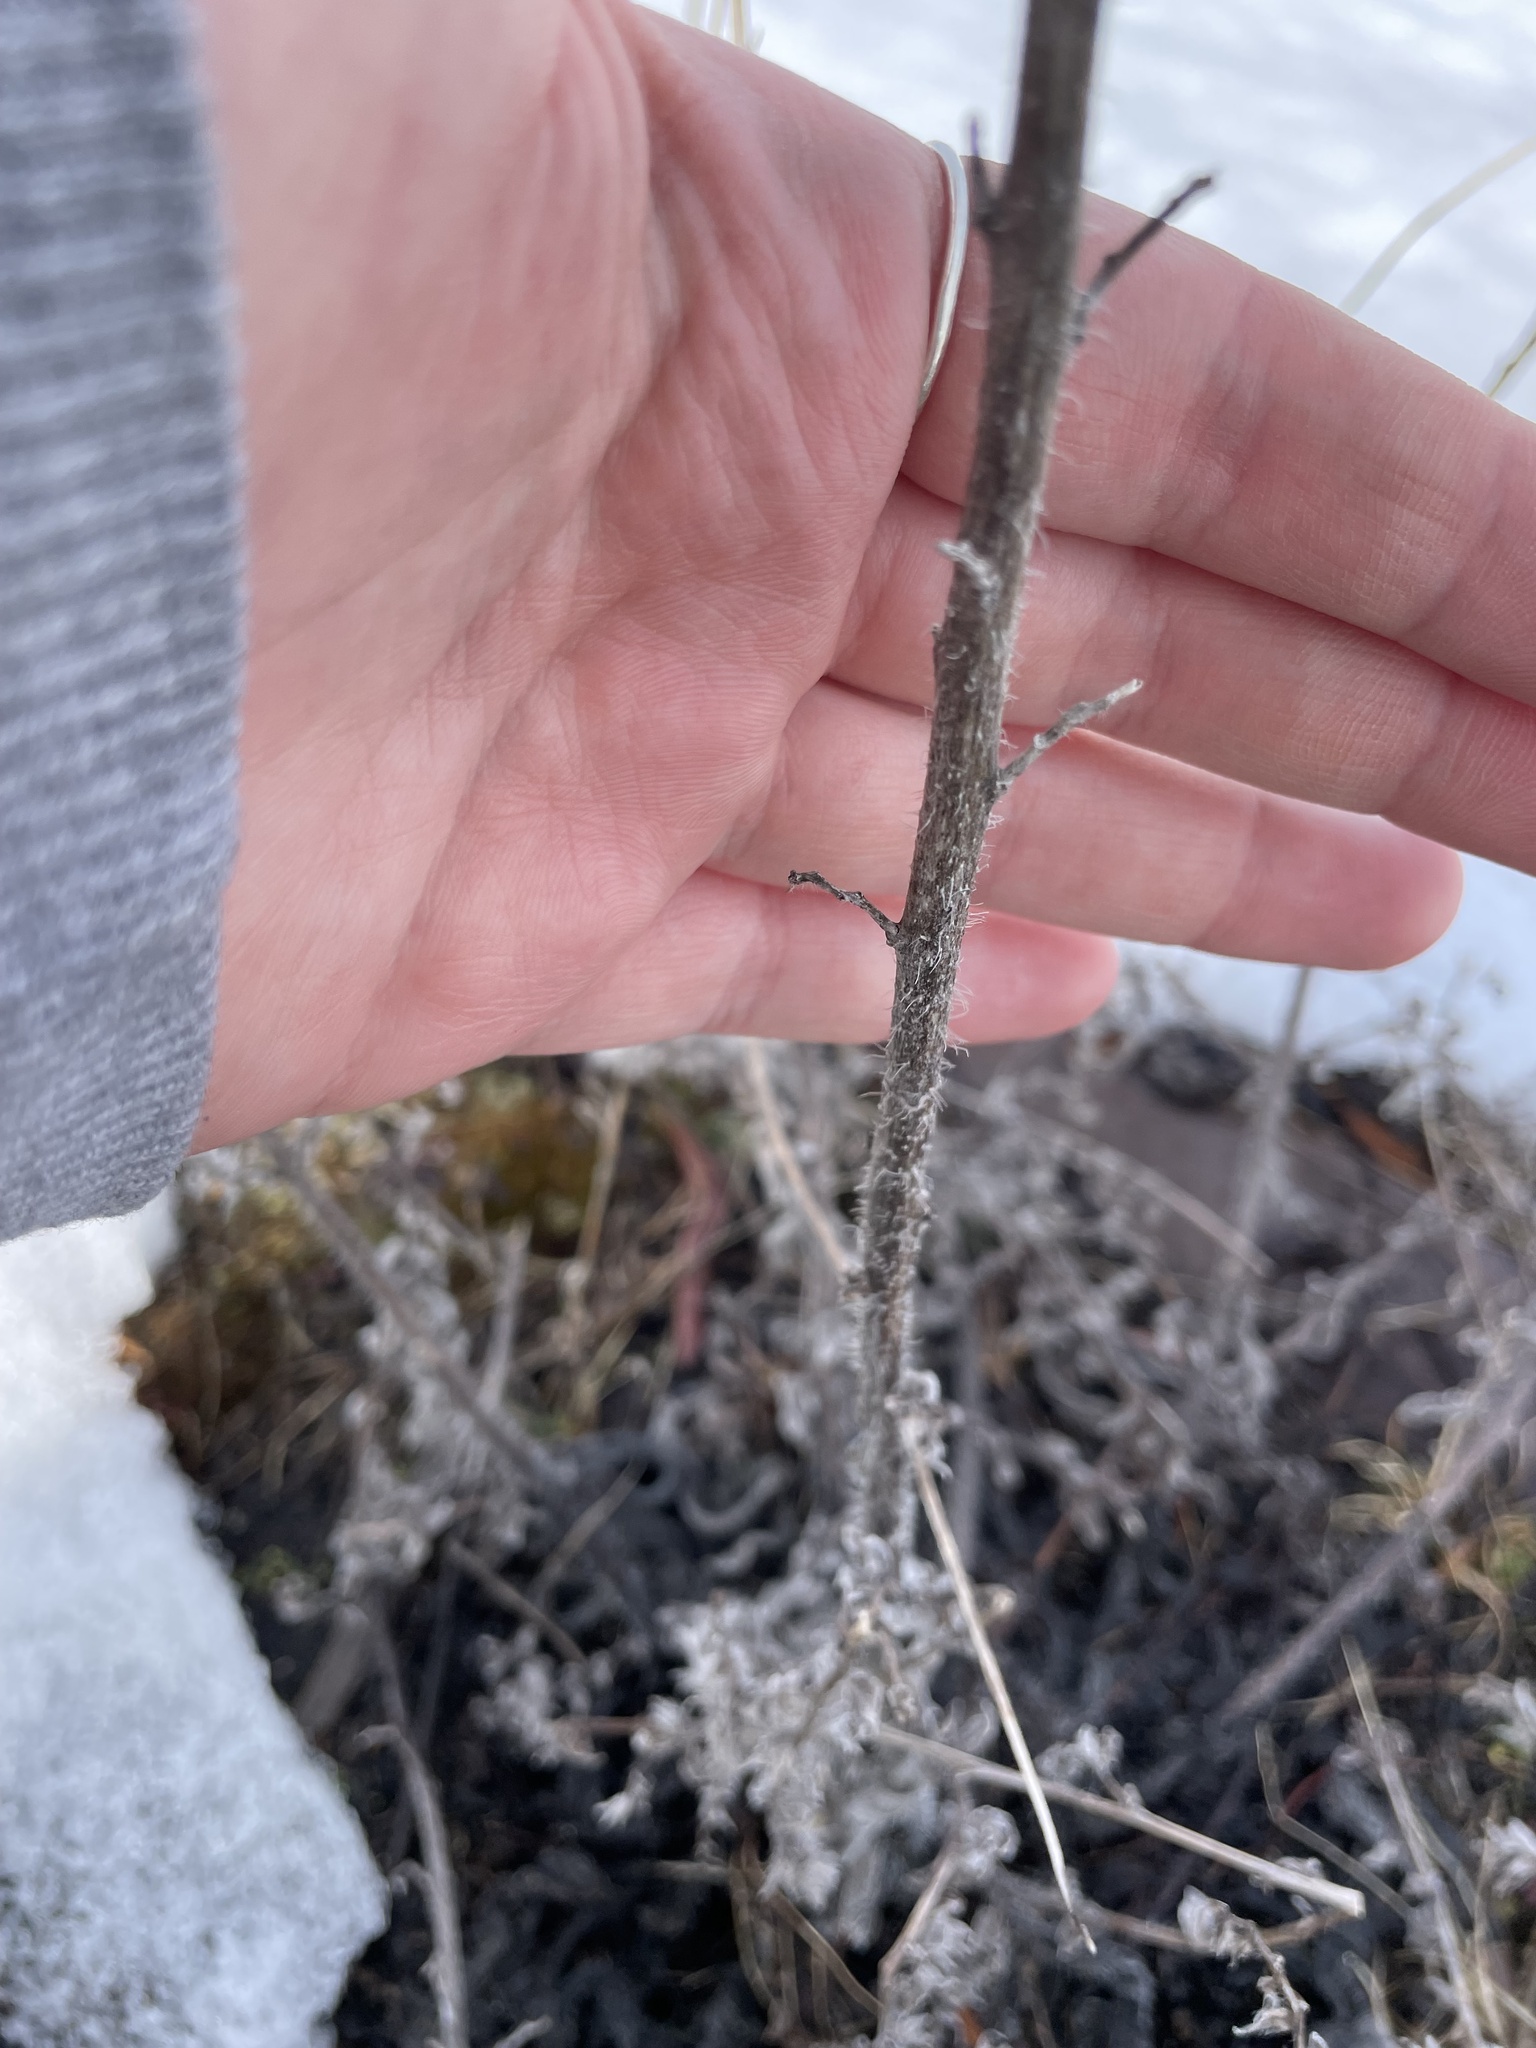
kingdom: Plantae
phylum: Tracheophyta
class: Magnoliopsida
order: Boraginales
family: Boraginaceae
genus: Echium
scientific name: Echium vulgare
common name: Common viper's bugloss
